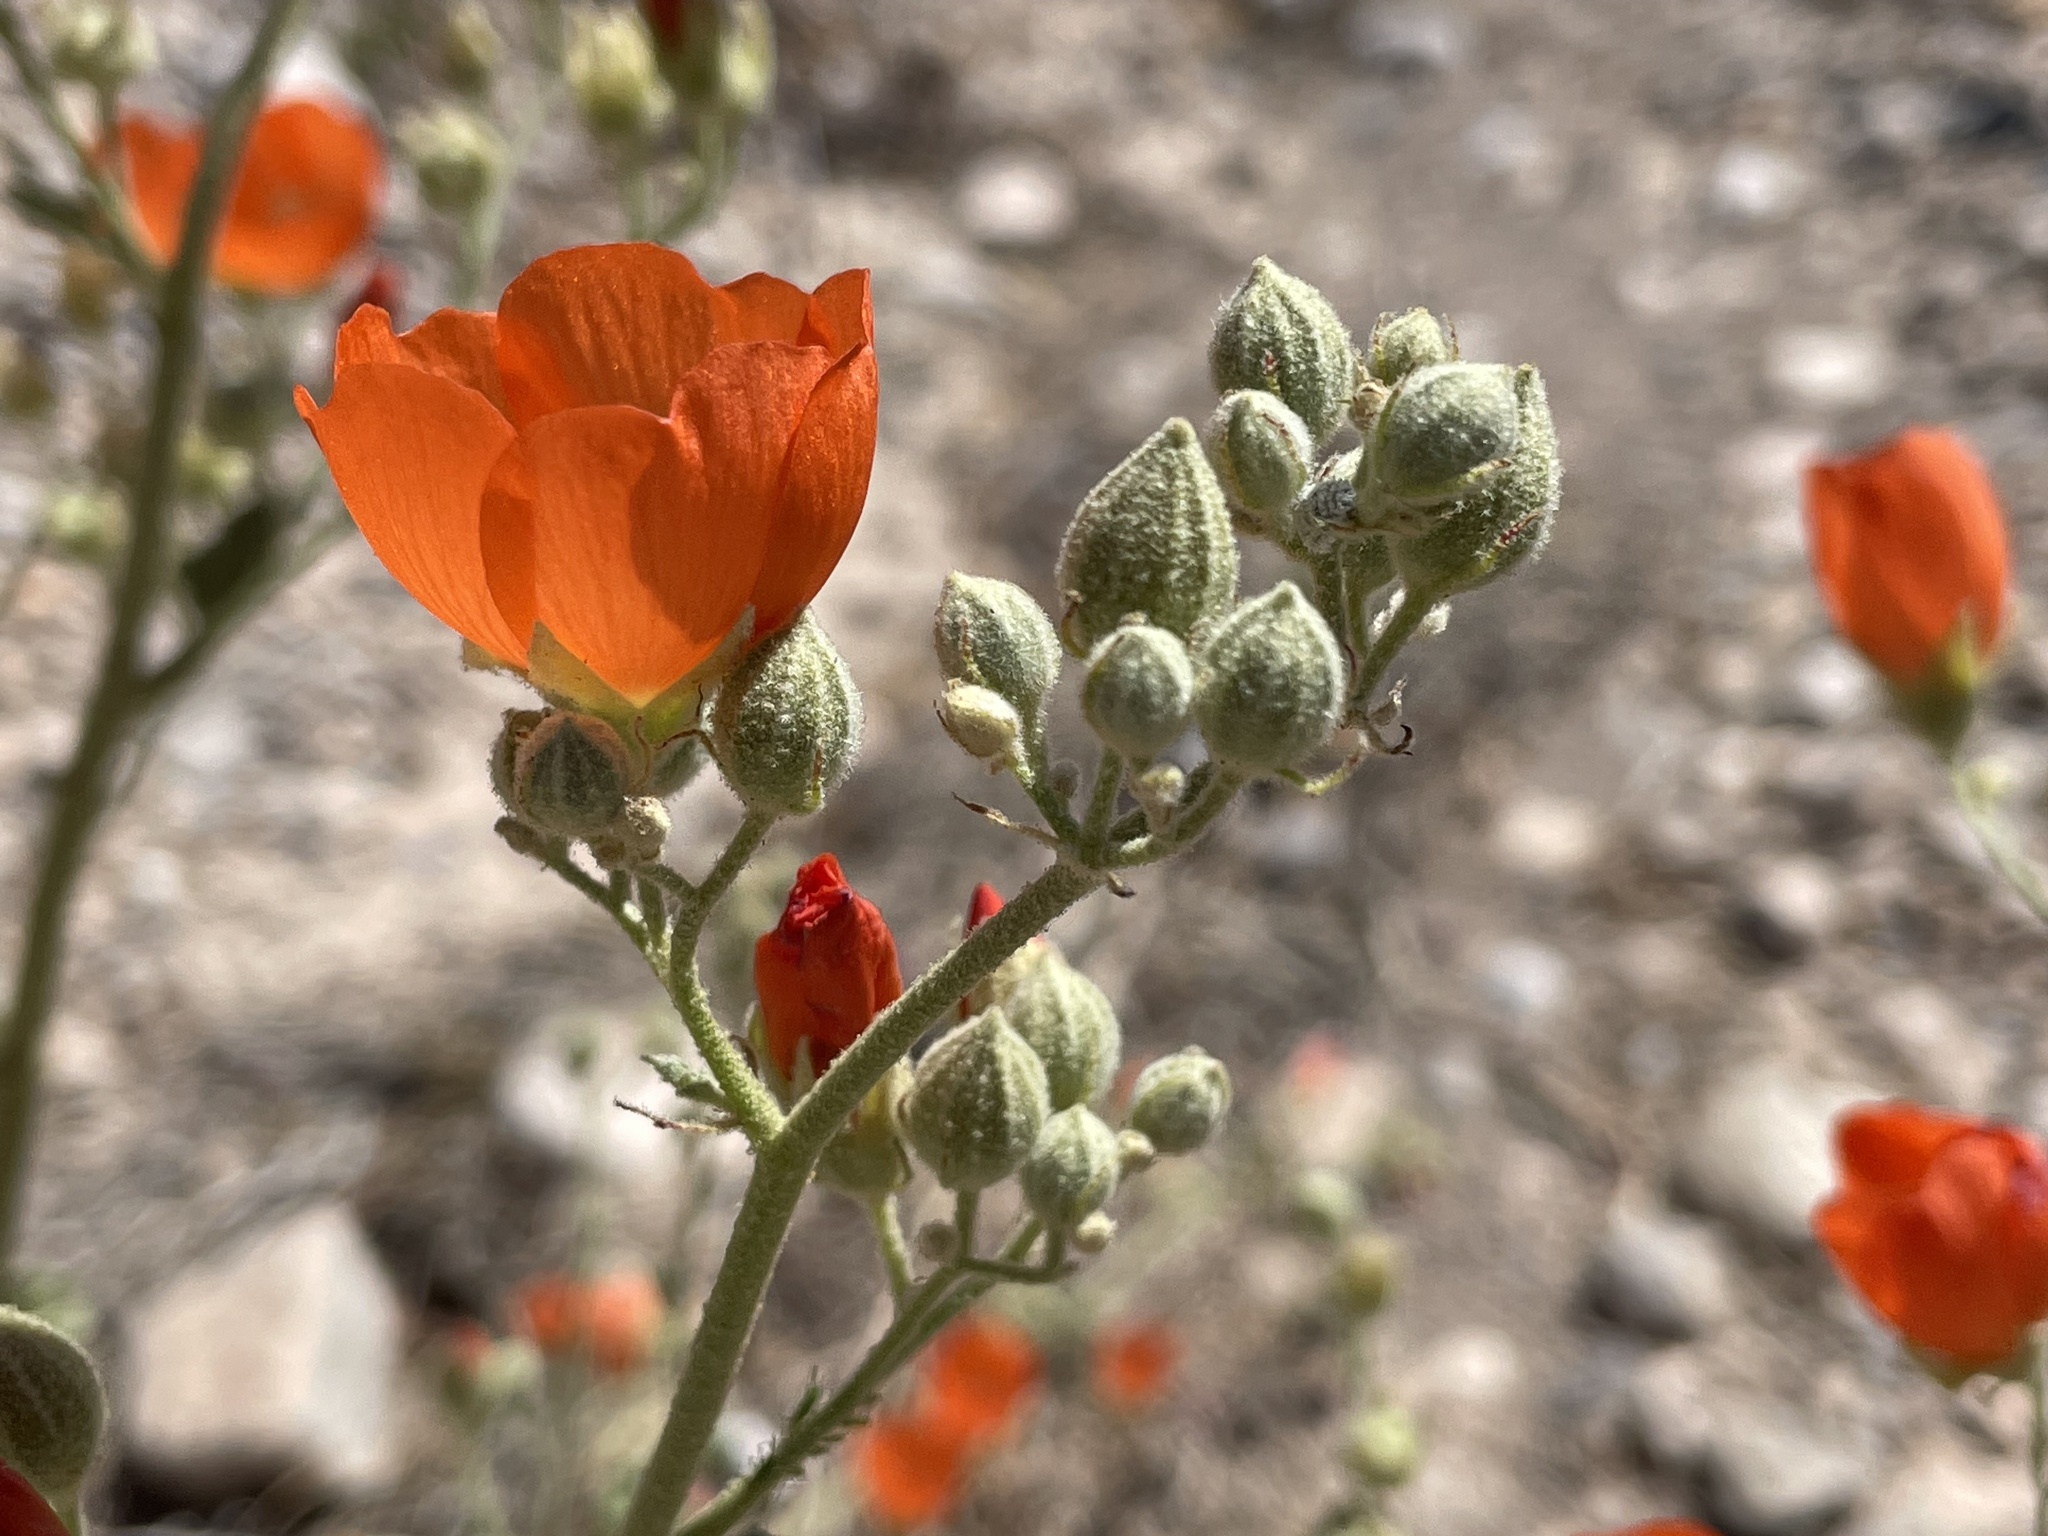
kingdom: Plantae
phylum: Tracheophyta
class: Magnoliopsida
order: Malvales
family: Malvaceae
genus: Sphaeralcea
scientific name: Sphaeralcea ambigua
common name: Apricot globe-mallow
